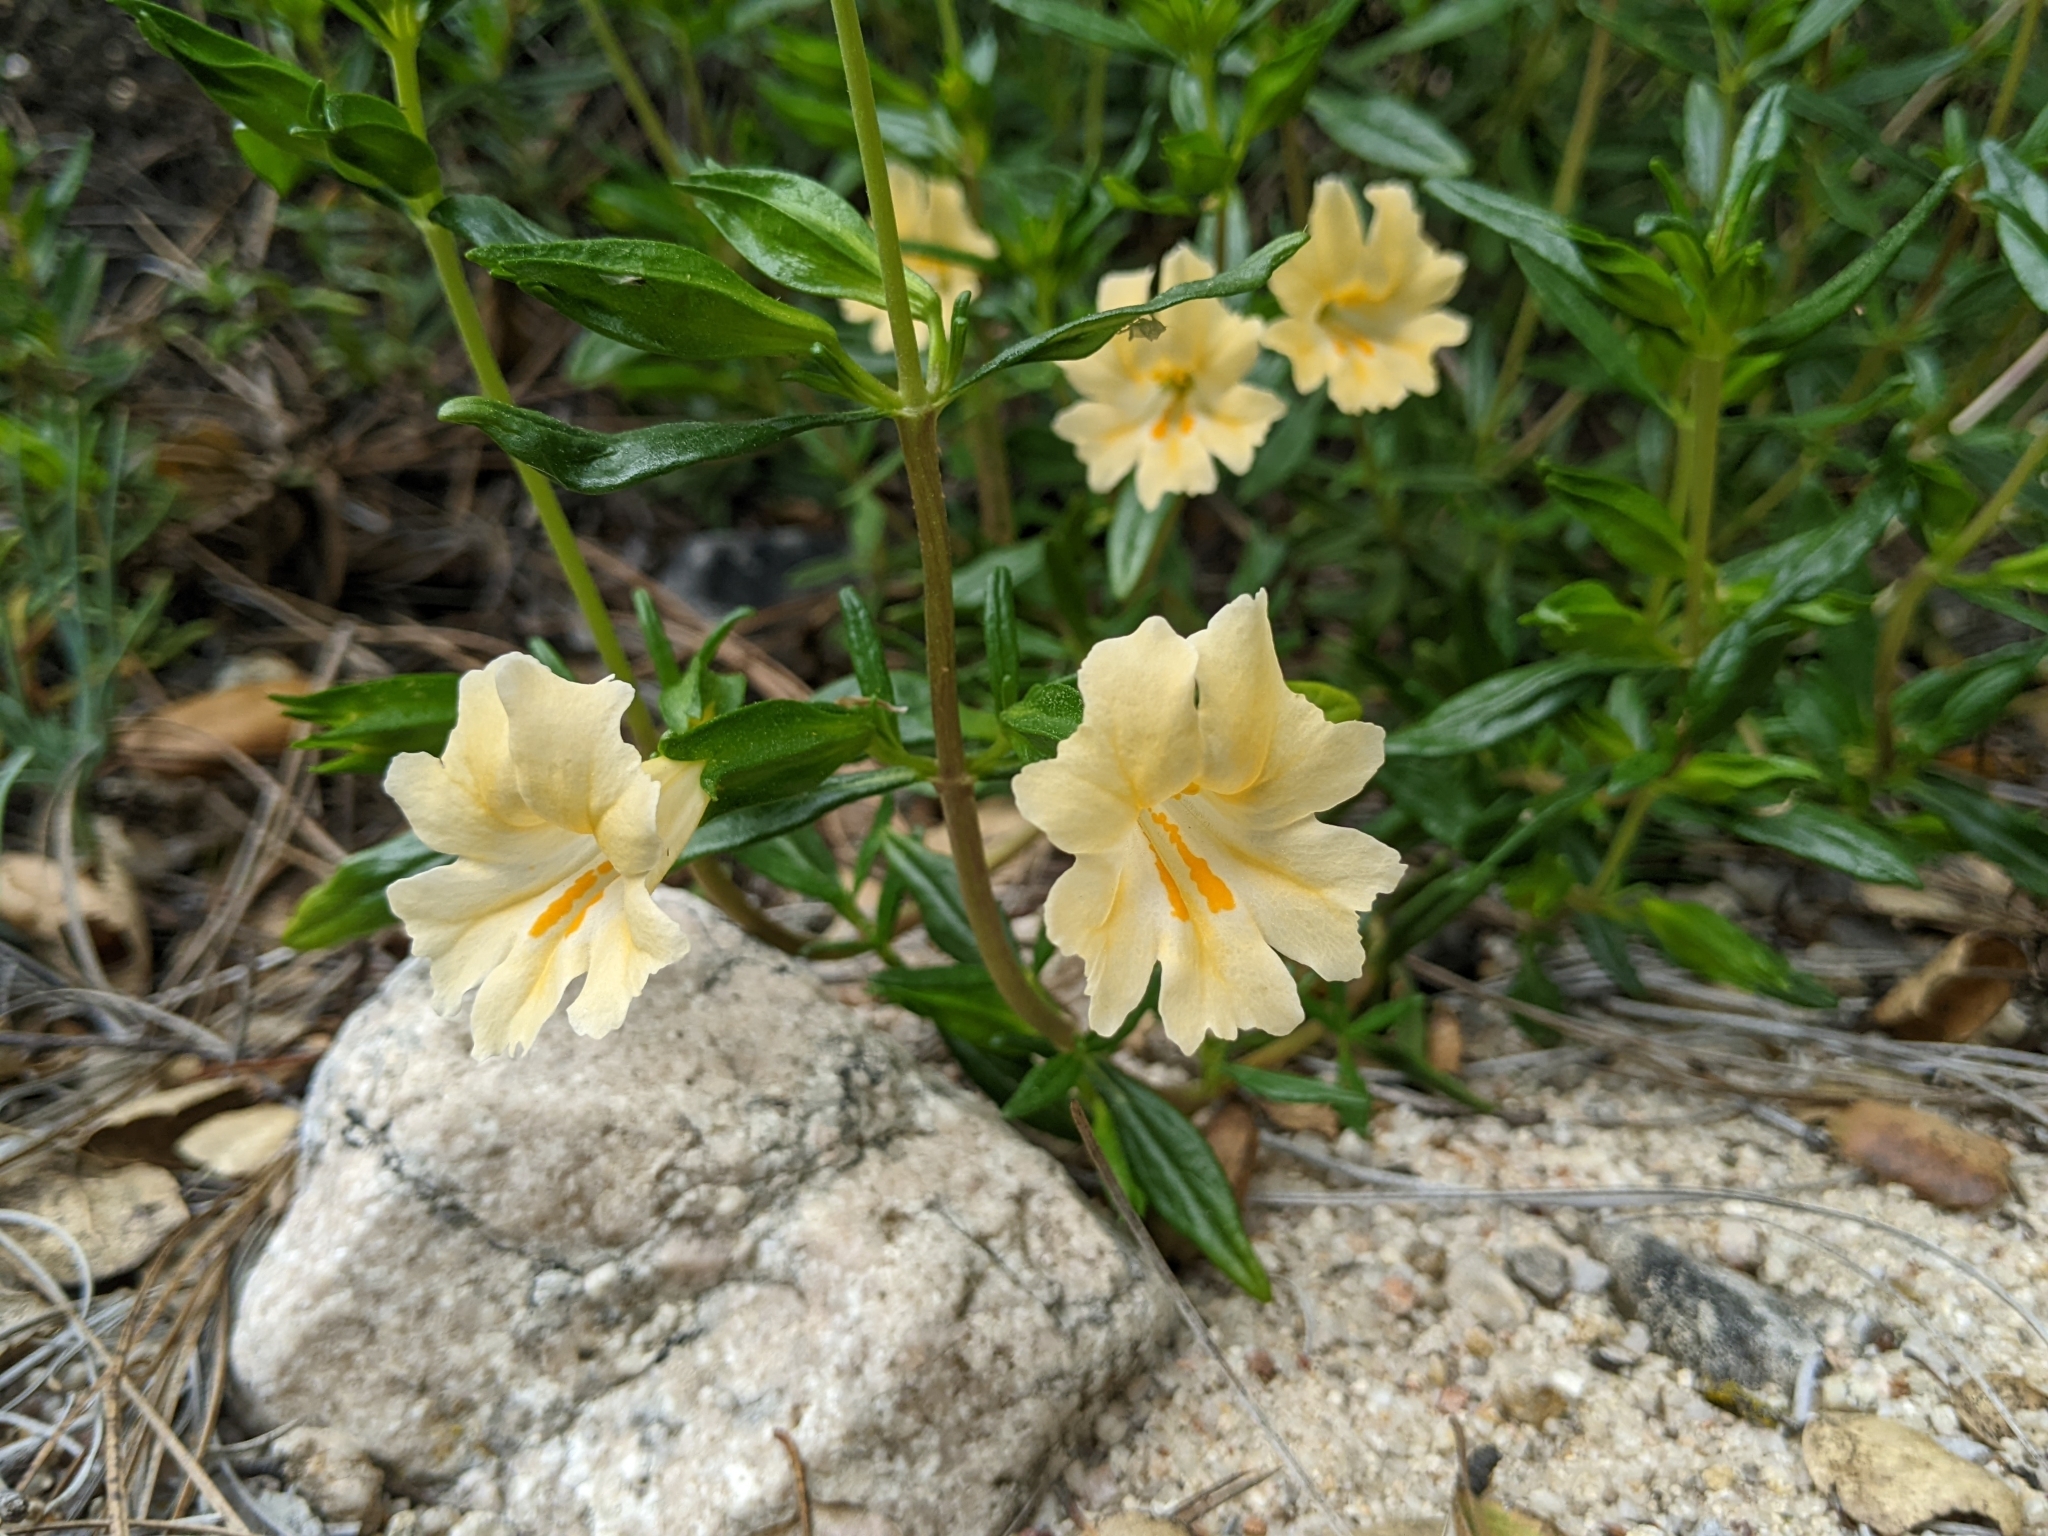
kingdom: Plantae
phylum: Tracheophyta
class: Magnoliopsida
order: Lamiales
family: Phrymaceae
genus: Diplacus
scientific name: Diplacus linearis
